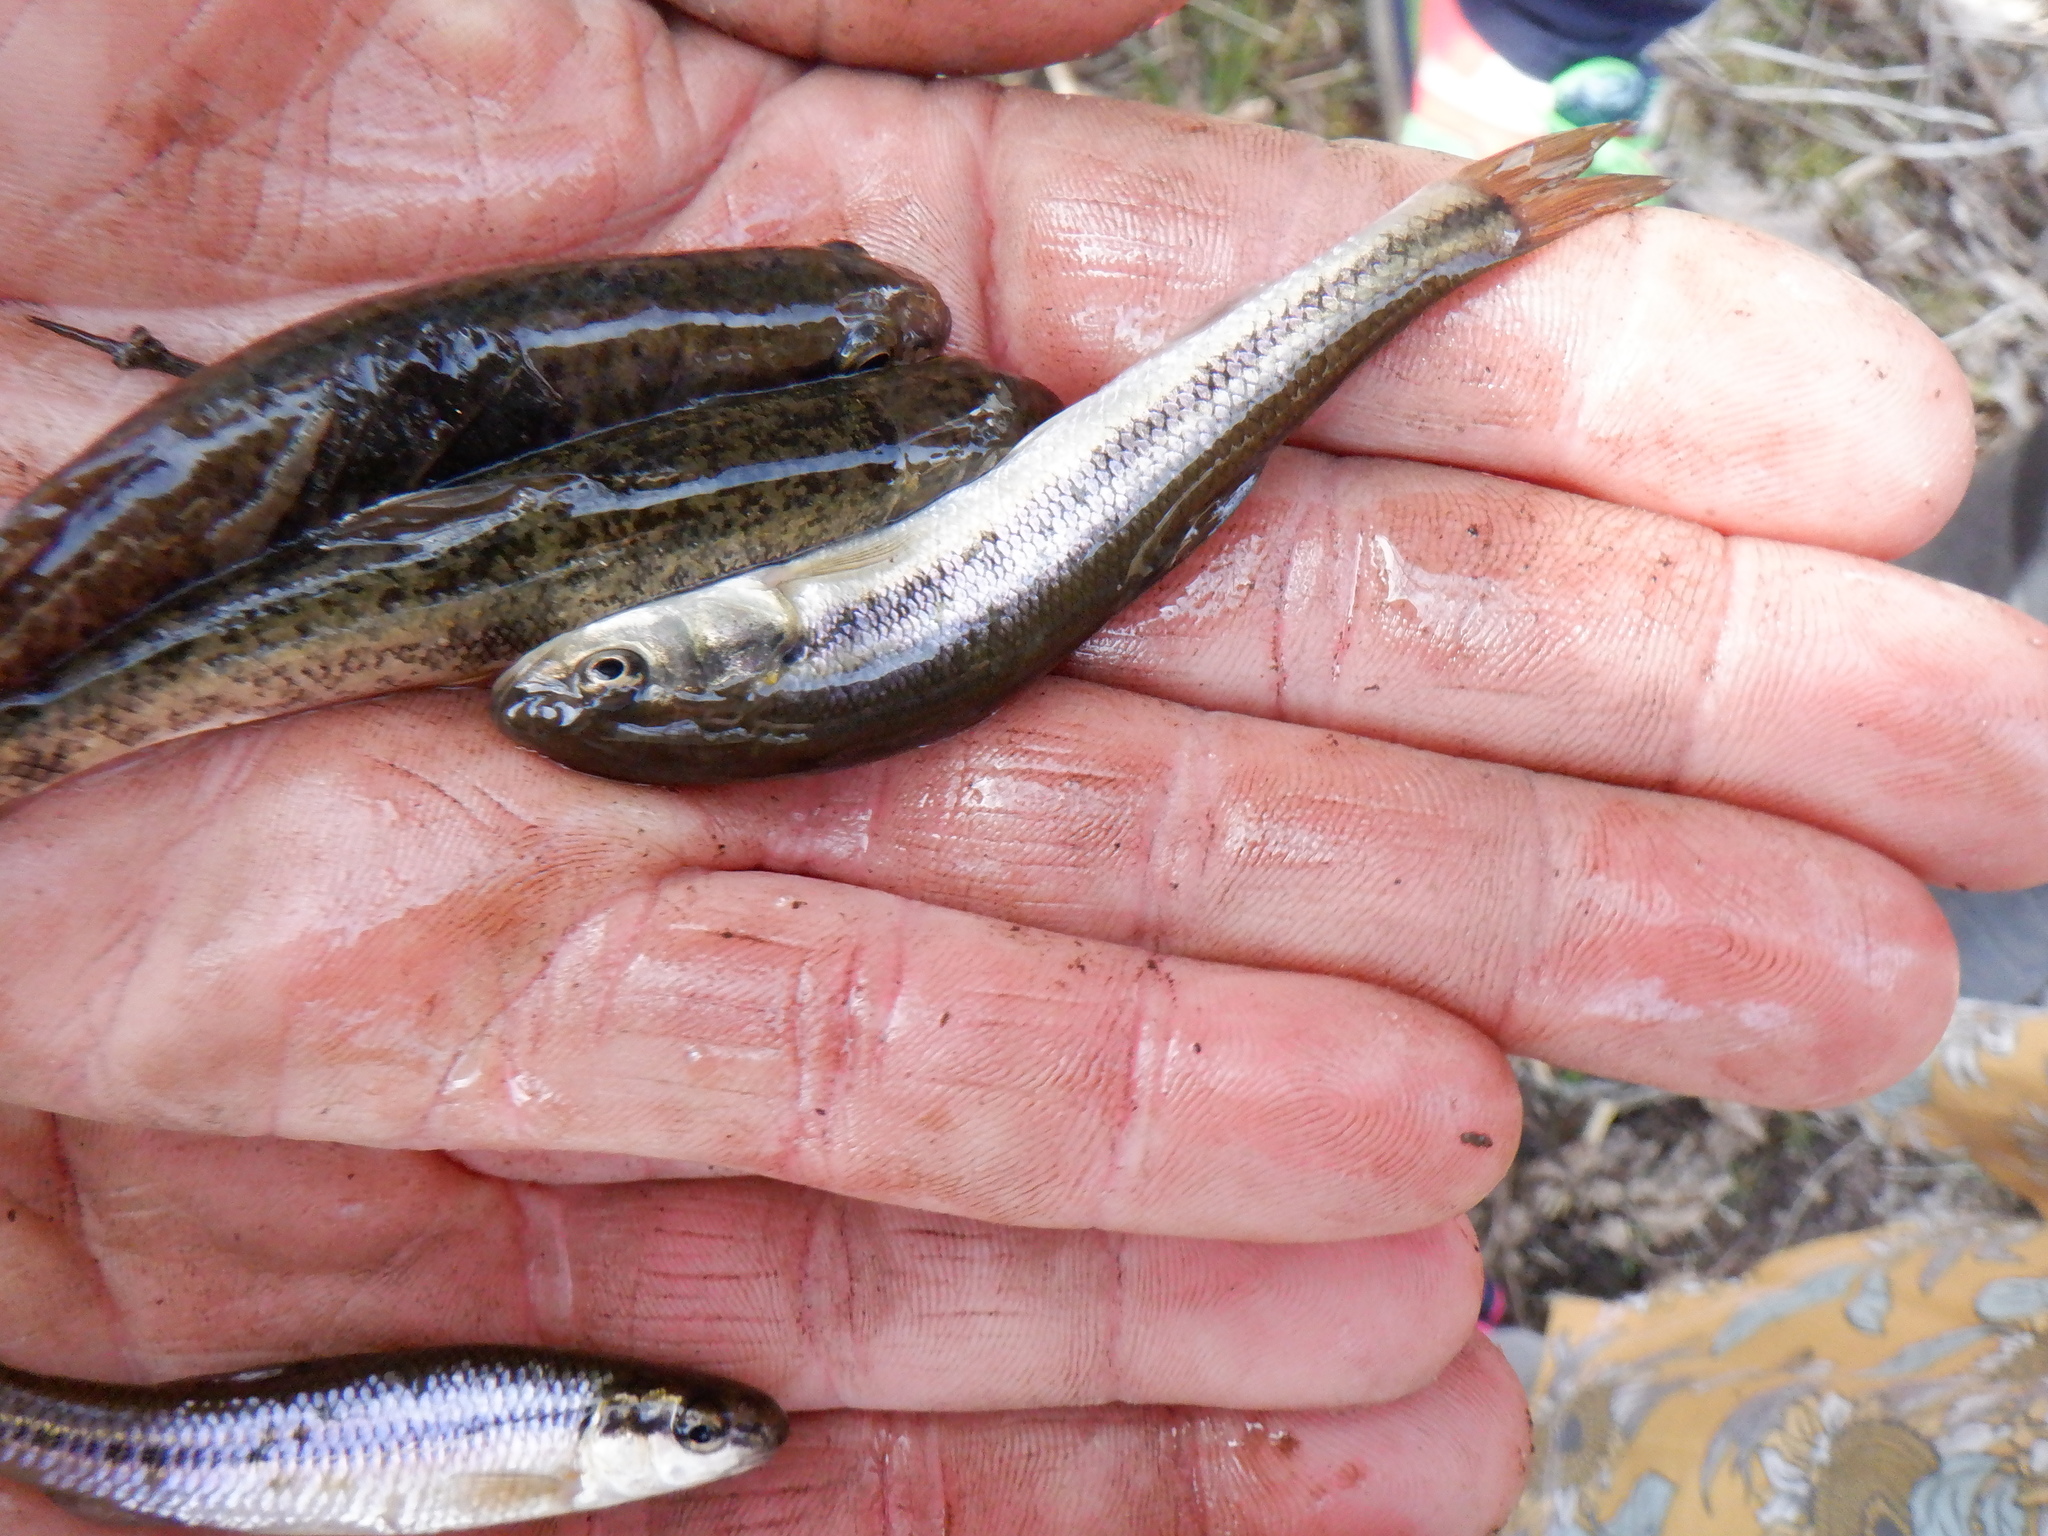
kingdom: Animalia
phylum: Chordata
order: Cypriniformes
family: Cyprinidae
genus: Semotilus
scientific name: Semotilus atromaculatus
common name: Creek chub
